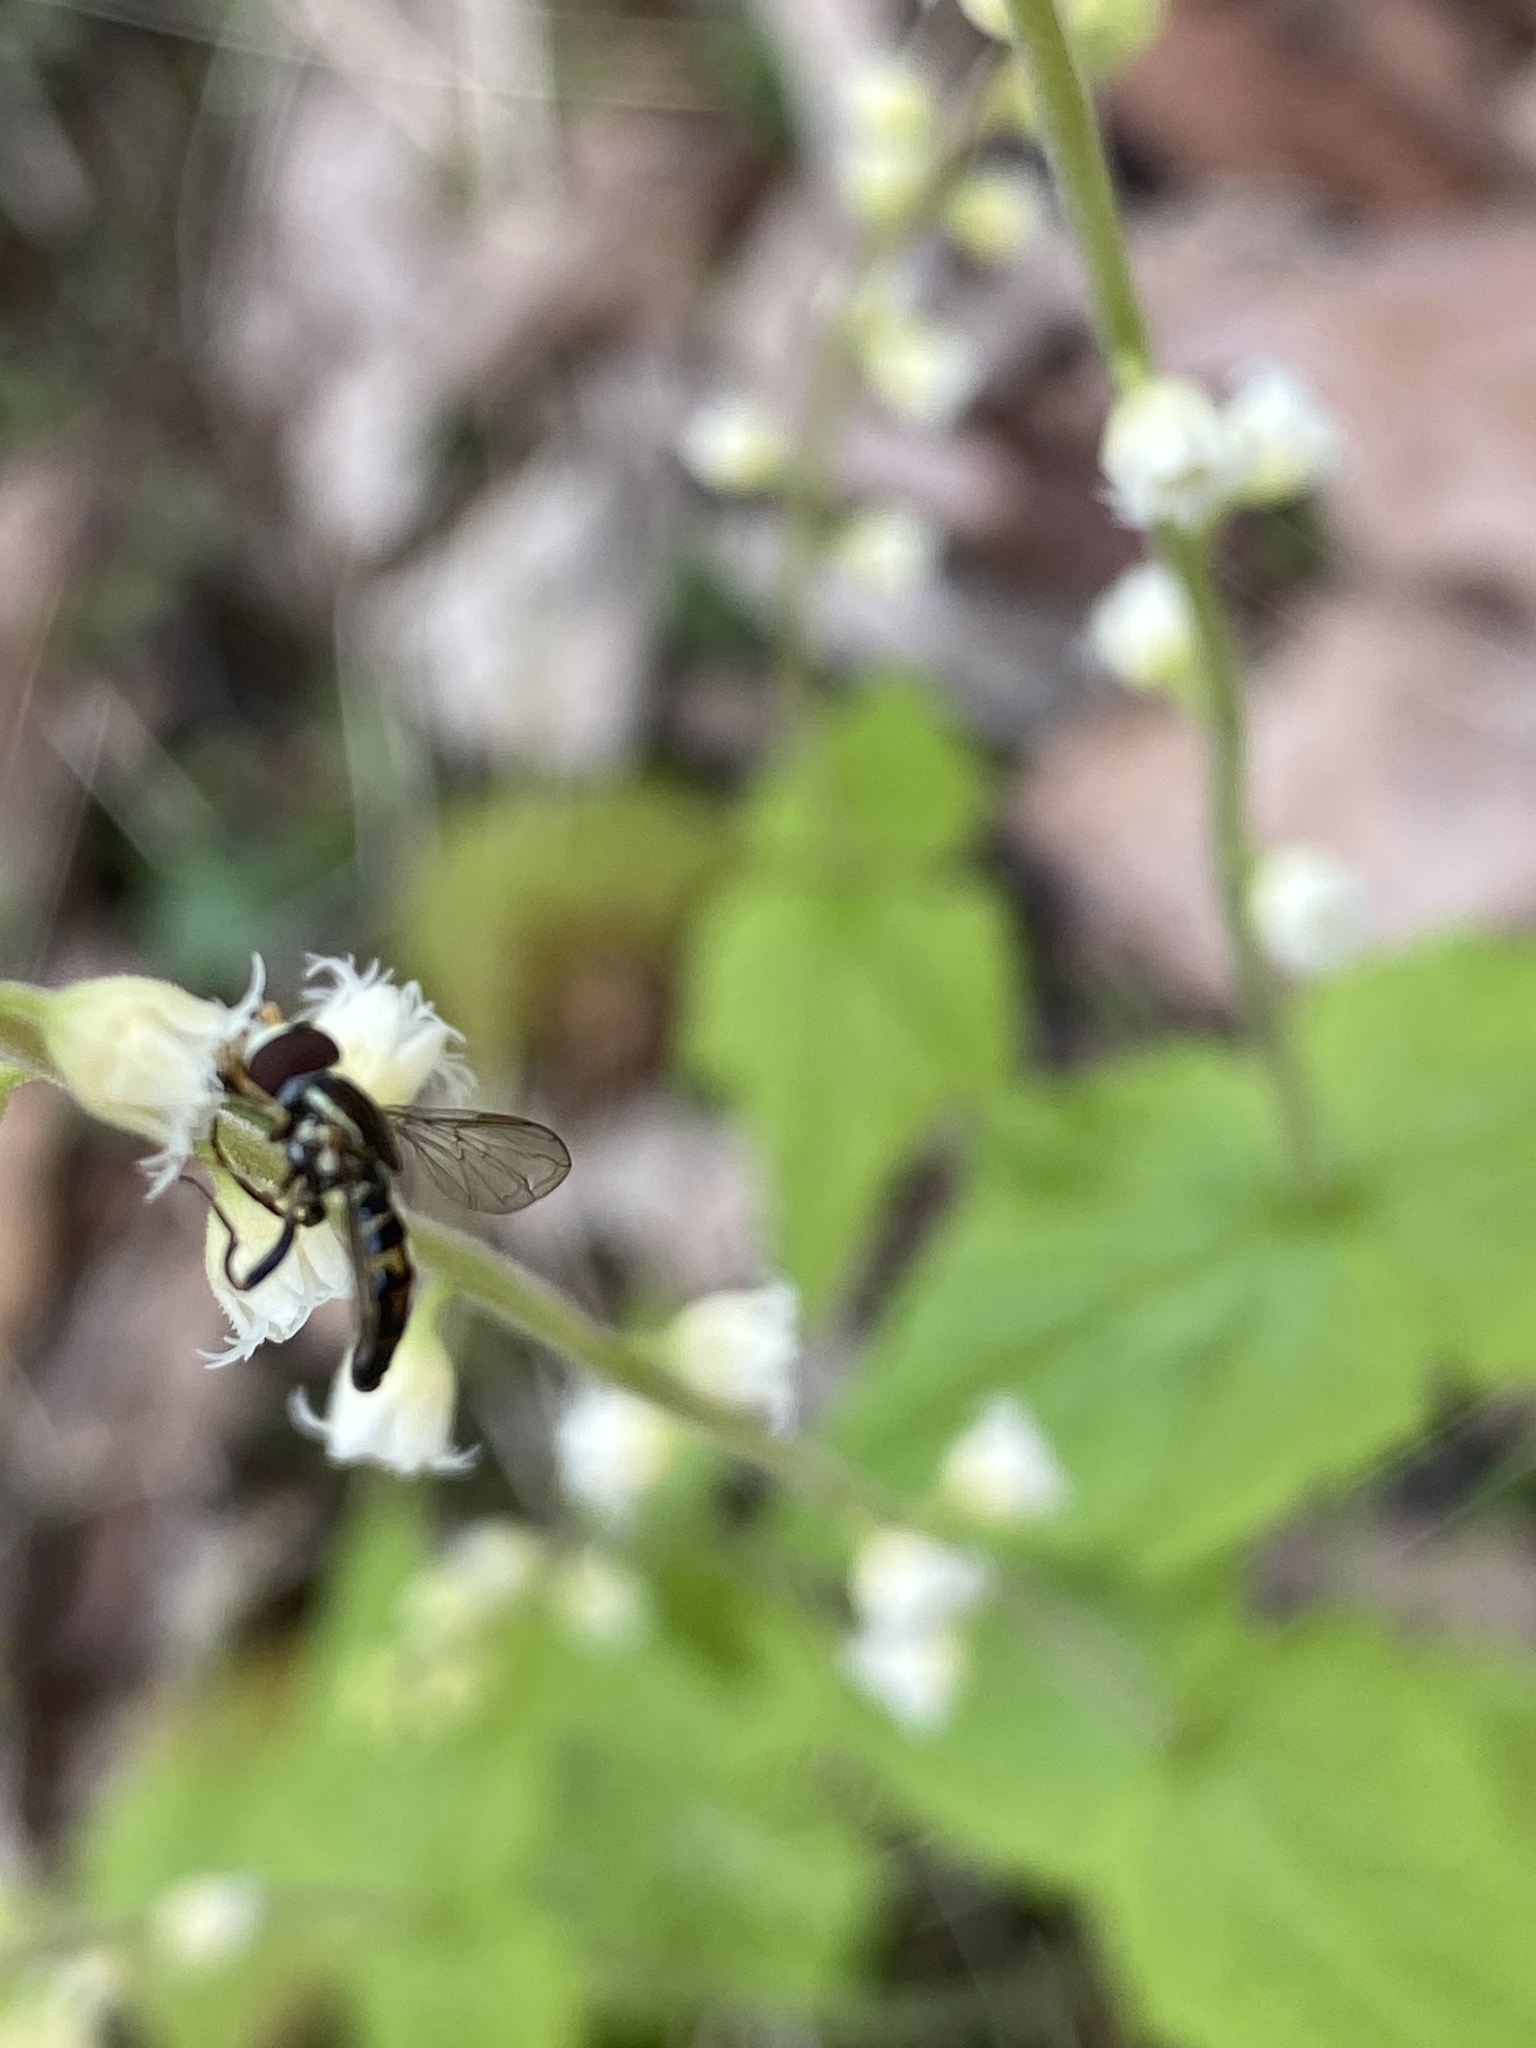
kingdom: Animalia
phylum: Arthropoda
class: Insecta
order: Diptera
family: Syrphidae
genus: Toxomerus
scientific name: Toxomerus geminatus
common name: Eastern calligrapher
